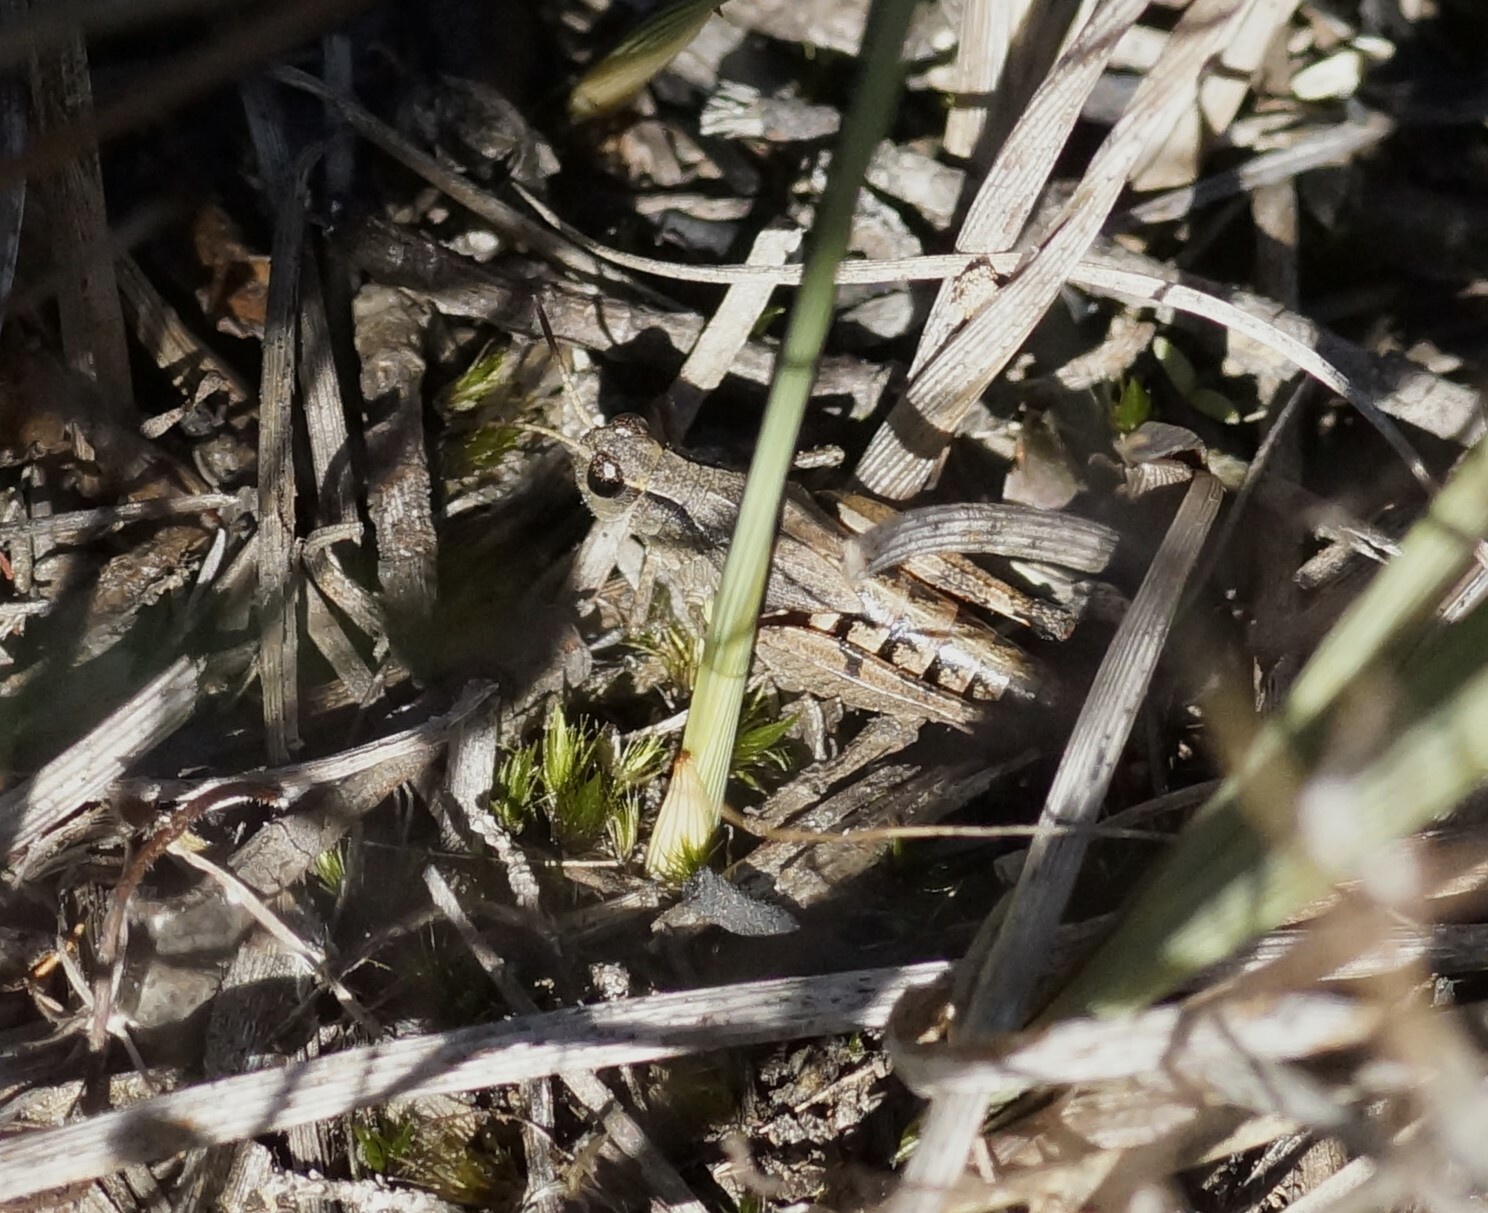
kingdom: Animalia
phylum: Arthropoda
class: Insecta
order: Orthoptera
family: Acrididae
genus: Phaulacridium
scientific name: Phaulacridium vittatum
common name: Wingless grasshopper
